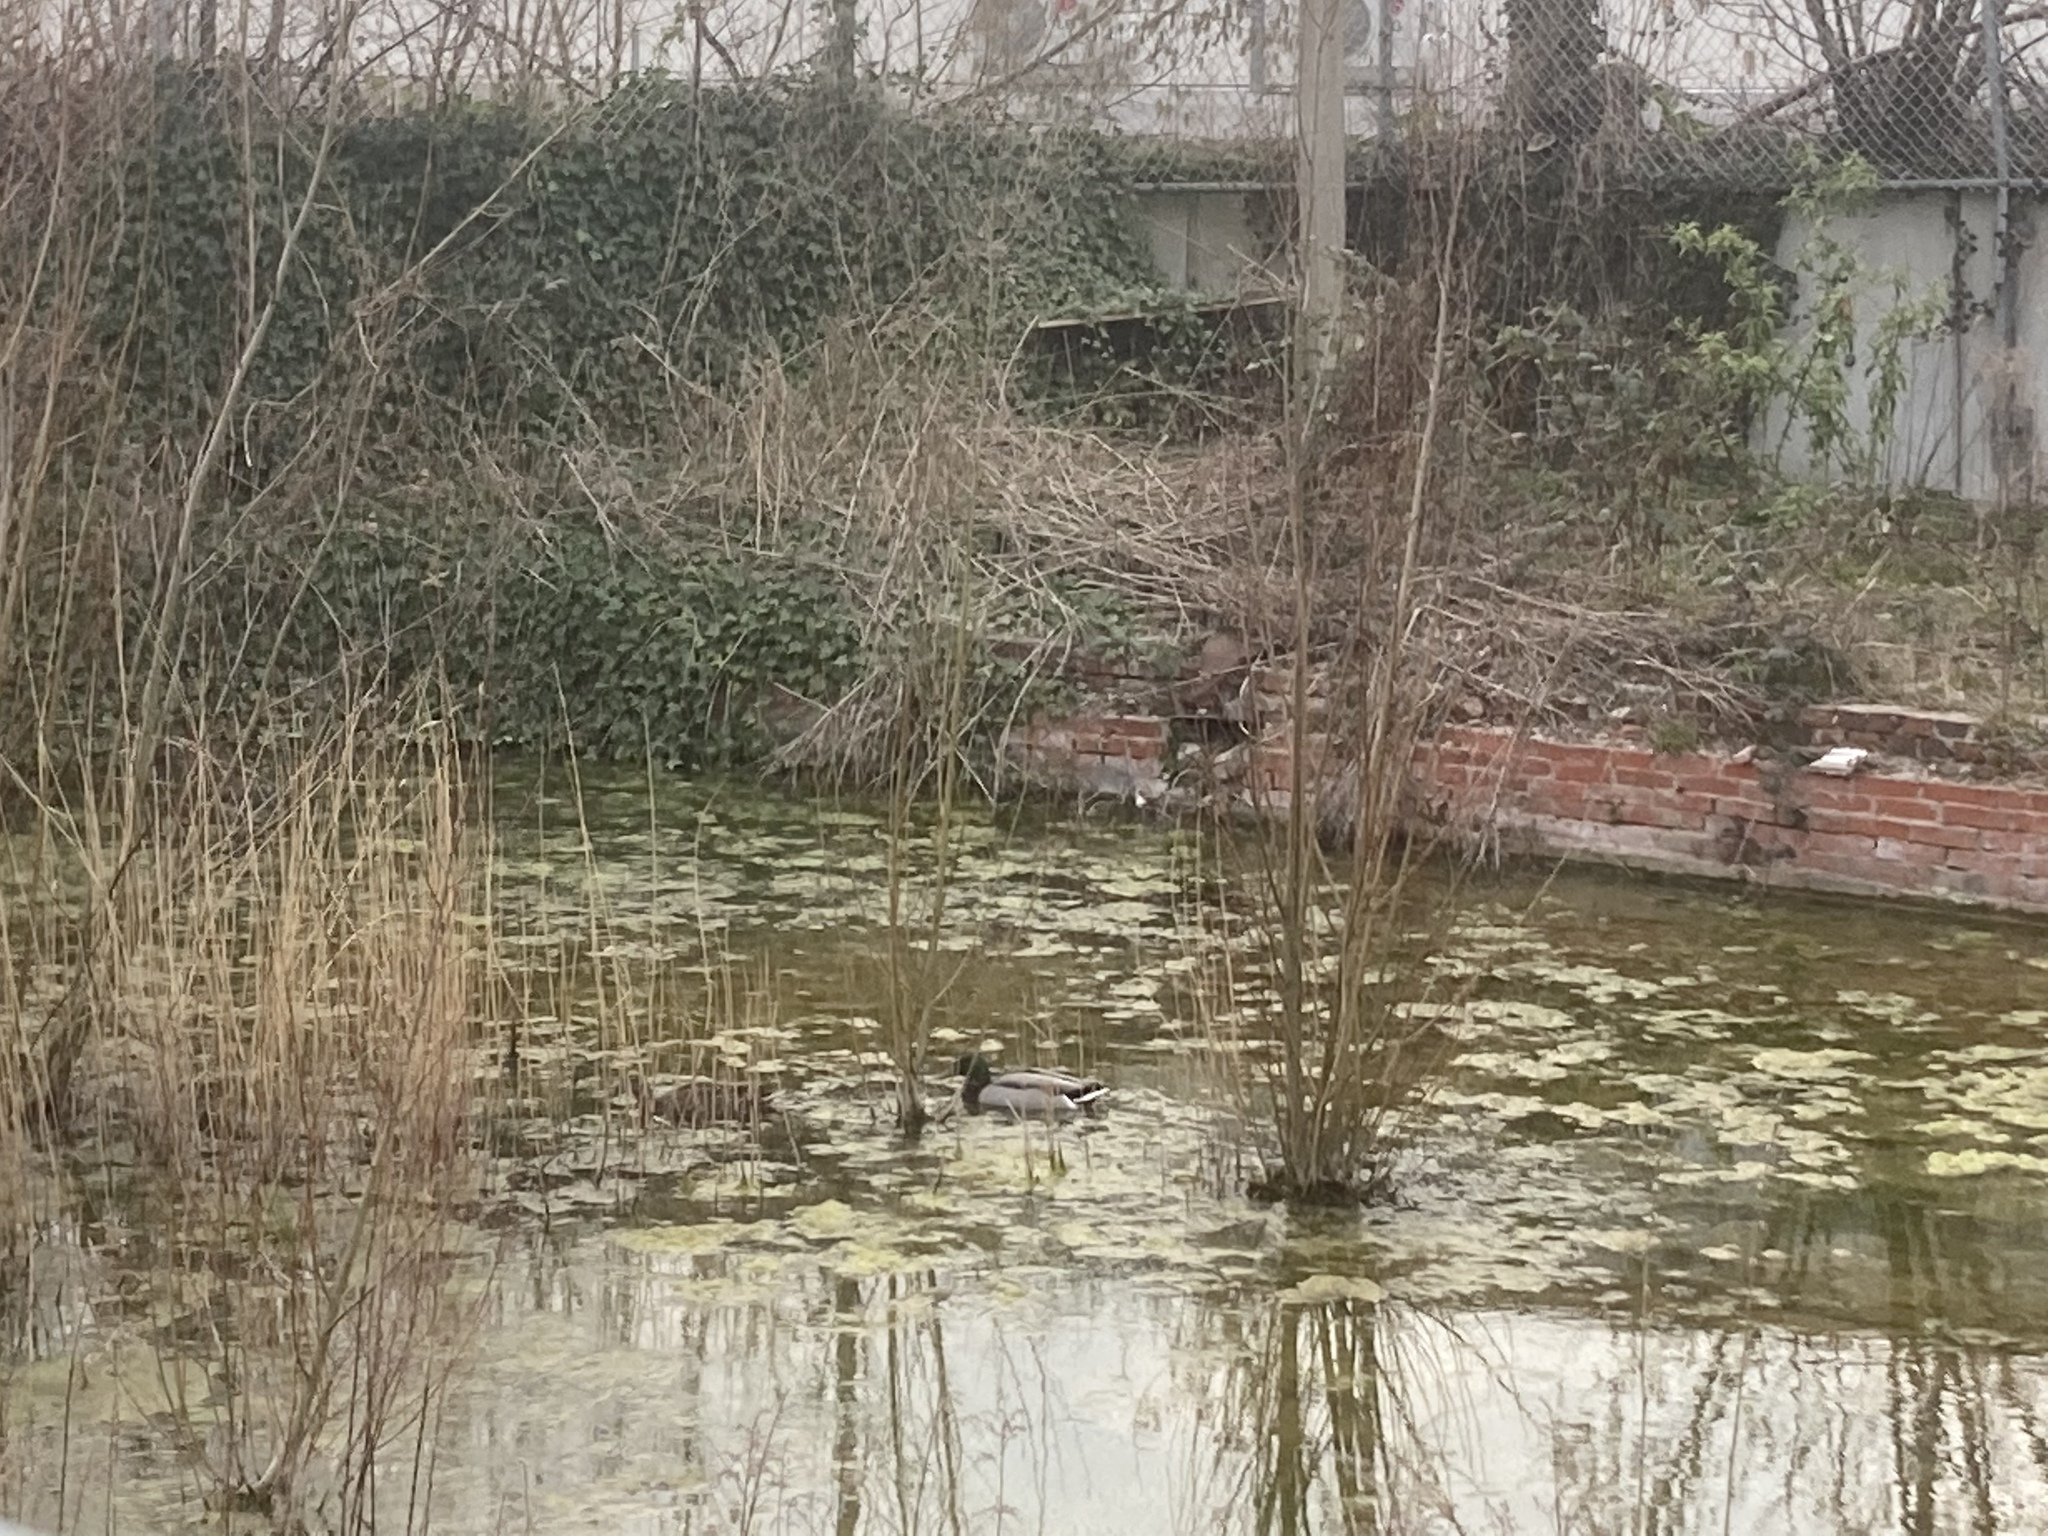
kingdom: Animalia
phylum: Chordata
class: Aves
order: Anseriformes
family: Anatidae
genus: Anas
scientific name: Anas platyrhynchos
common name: Mallard
